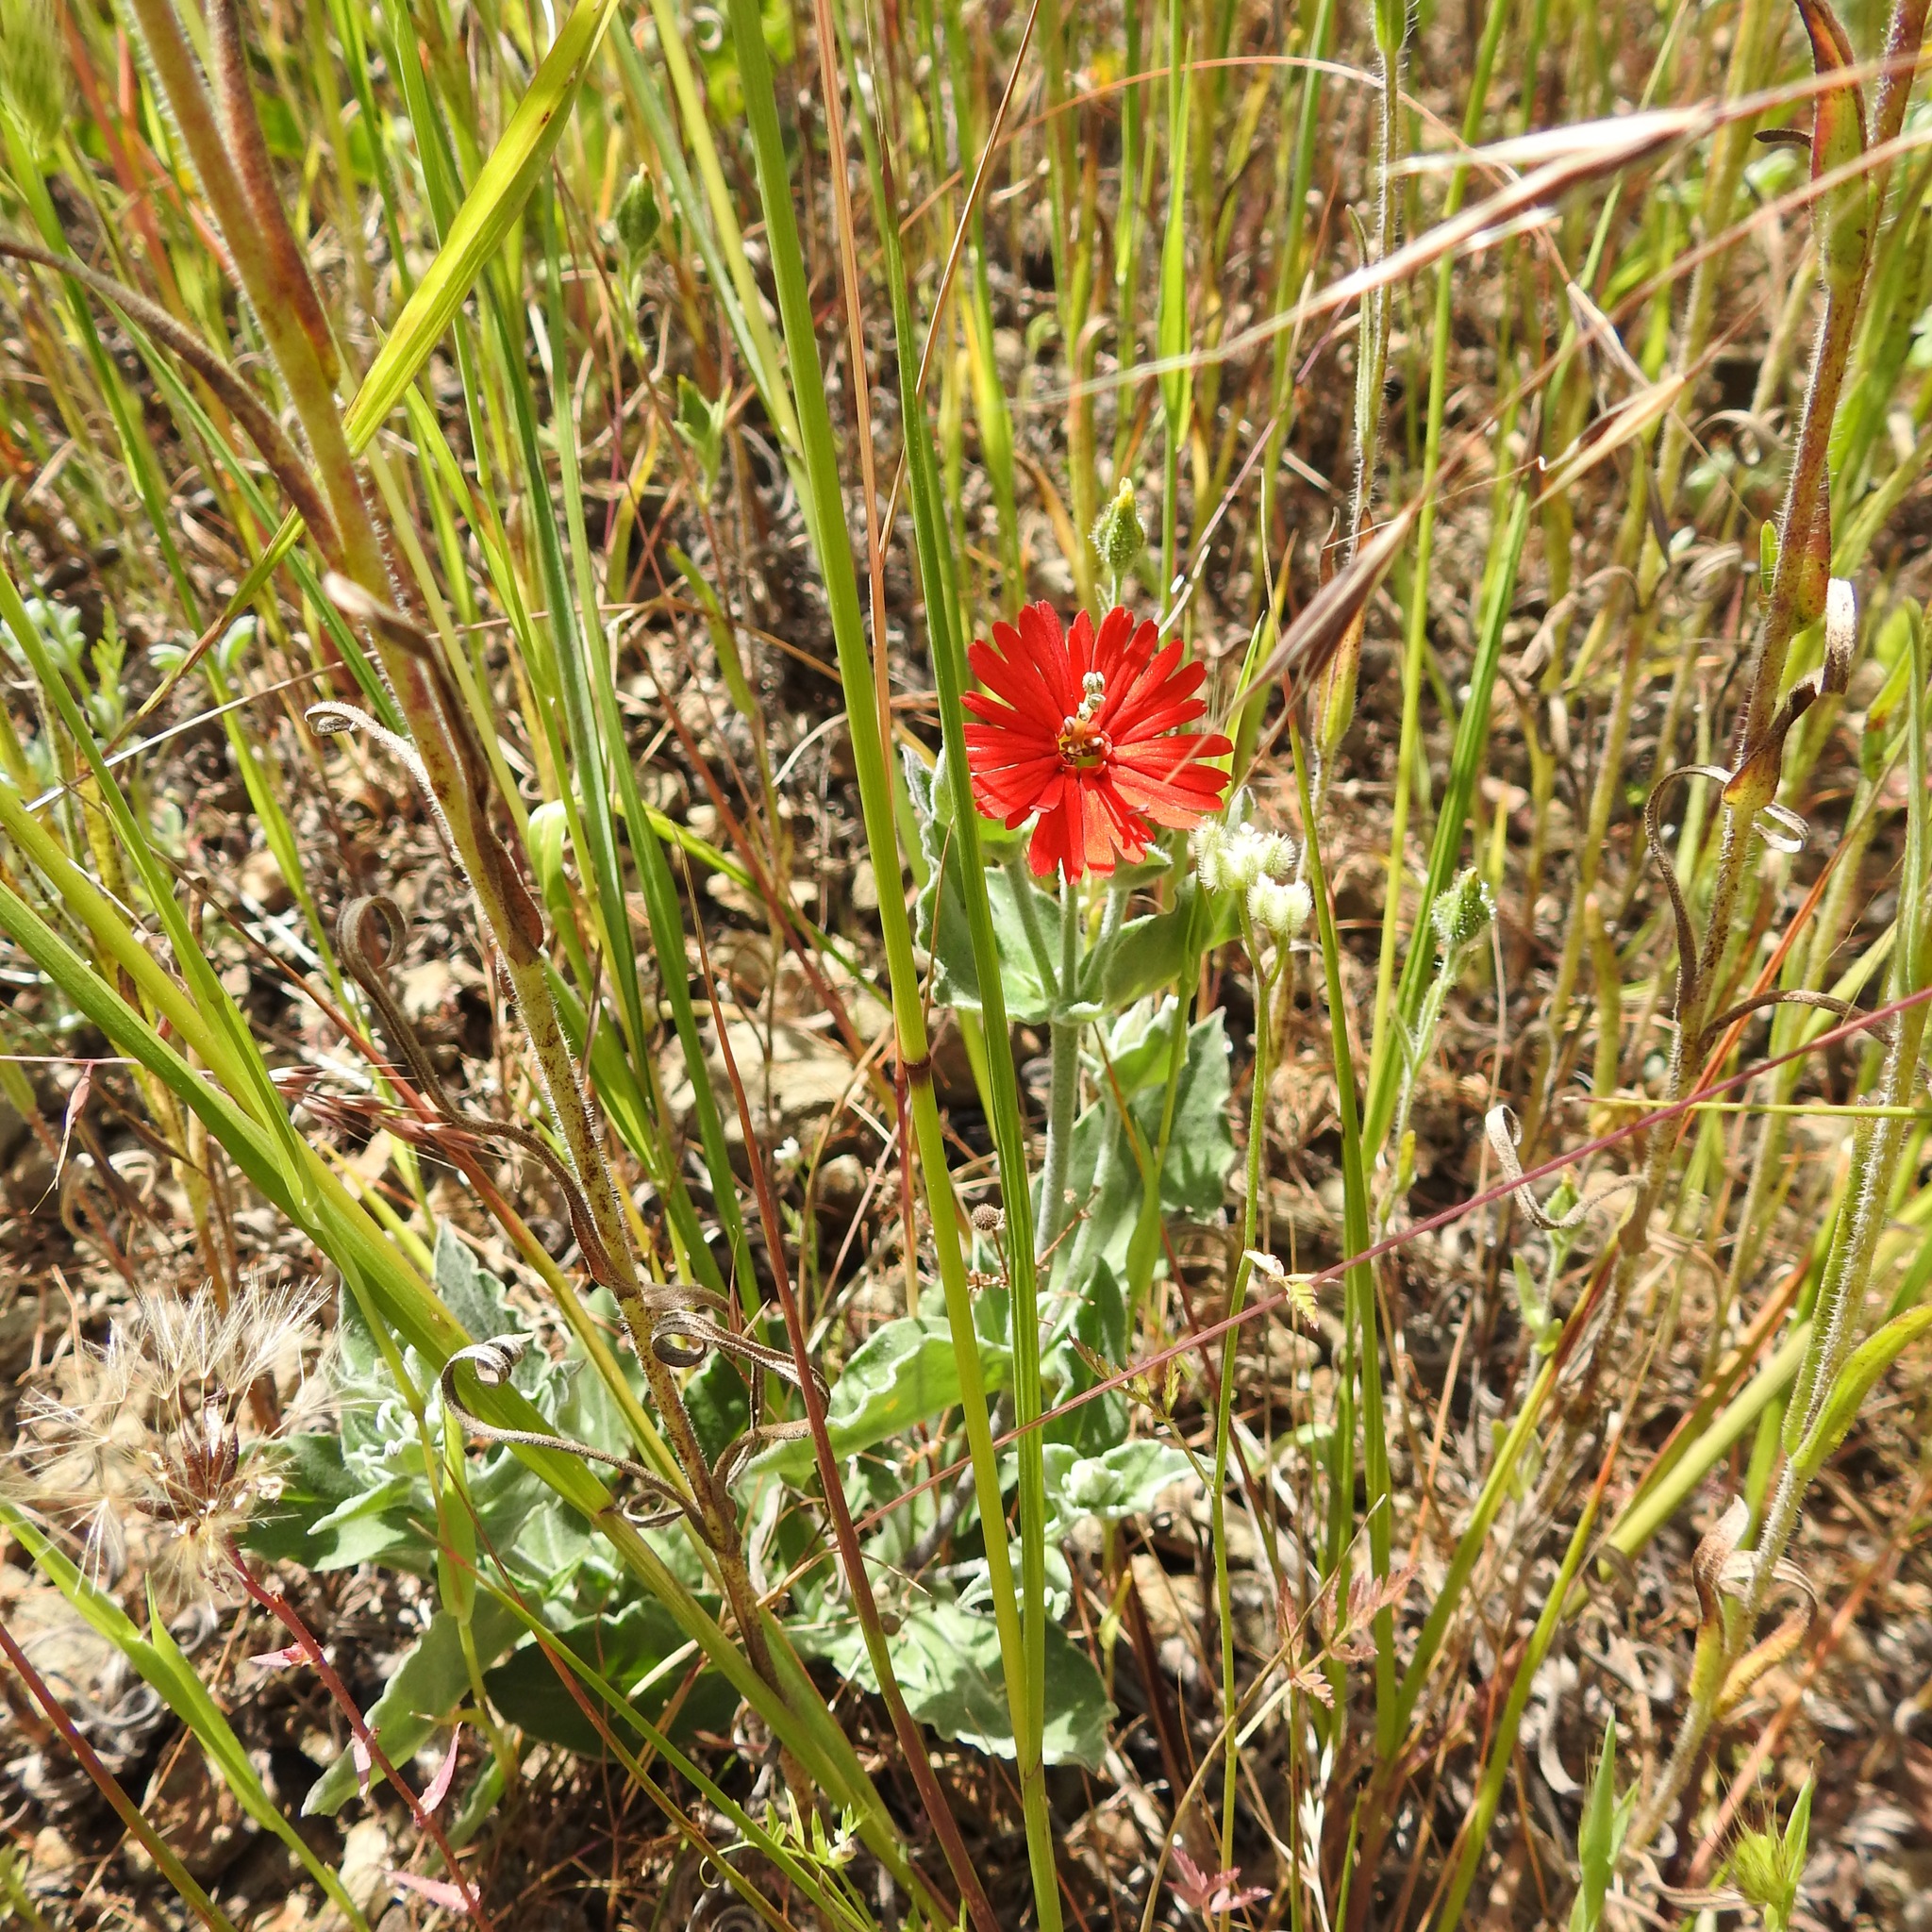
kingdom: Plantae
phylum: Tracheophyta
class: Magnoliopsida
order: Caryophyllales
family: Caryophyllaceae
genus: Silene
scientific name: Silene laciniata
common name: Indian-pink
